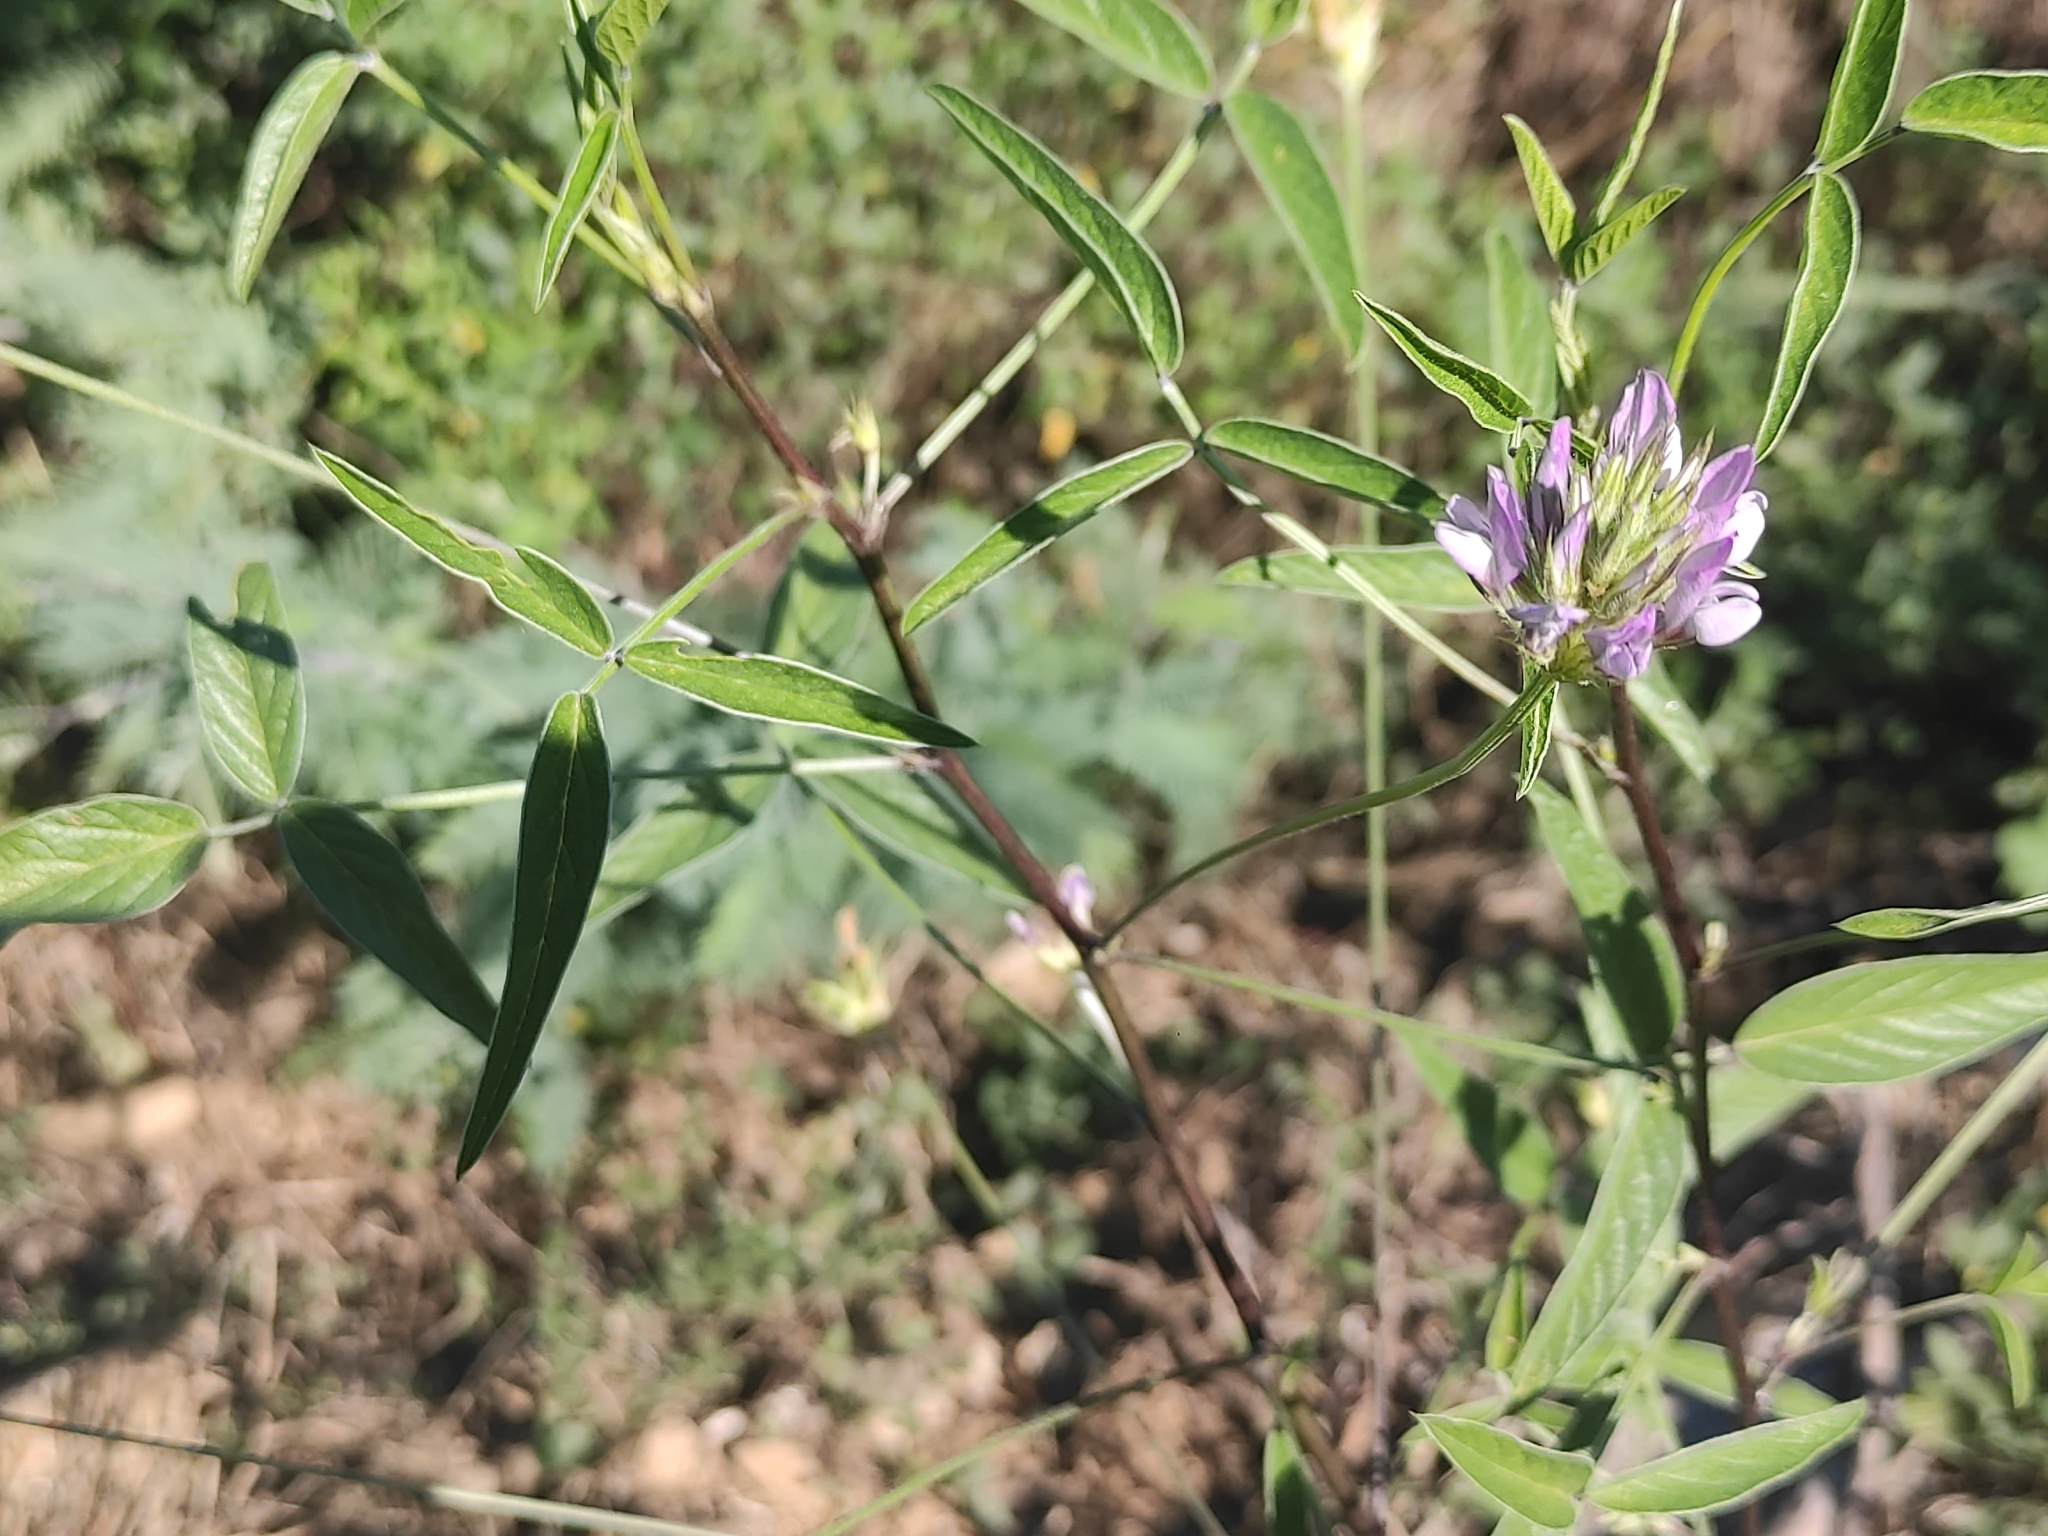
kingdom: Plantae
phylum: Tracheophyta
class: Magnoliopsida
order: Fabales
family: Fabaceae
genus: Bituminaria
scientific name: Bituminaria bituminosa
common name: Arabian pea
